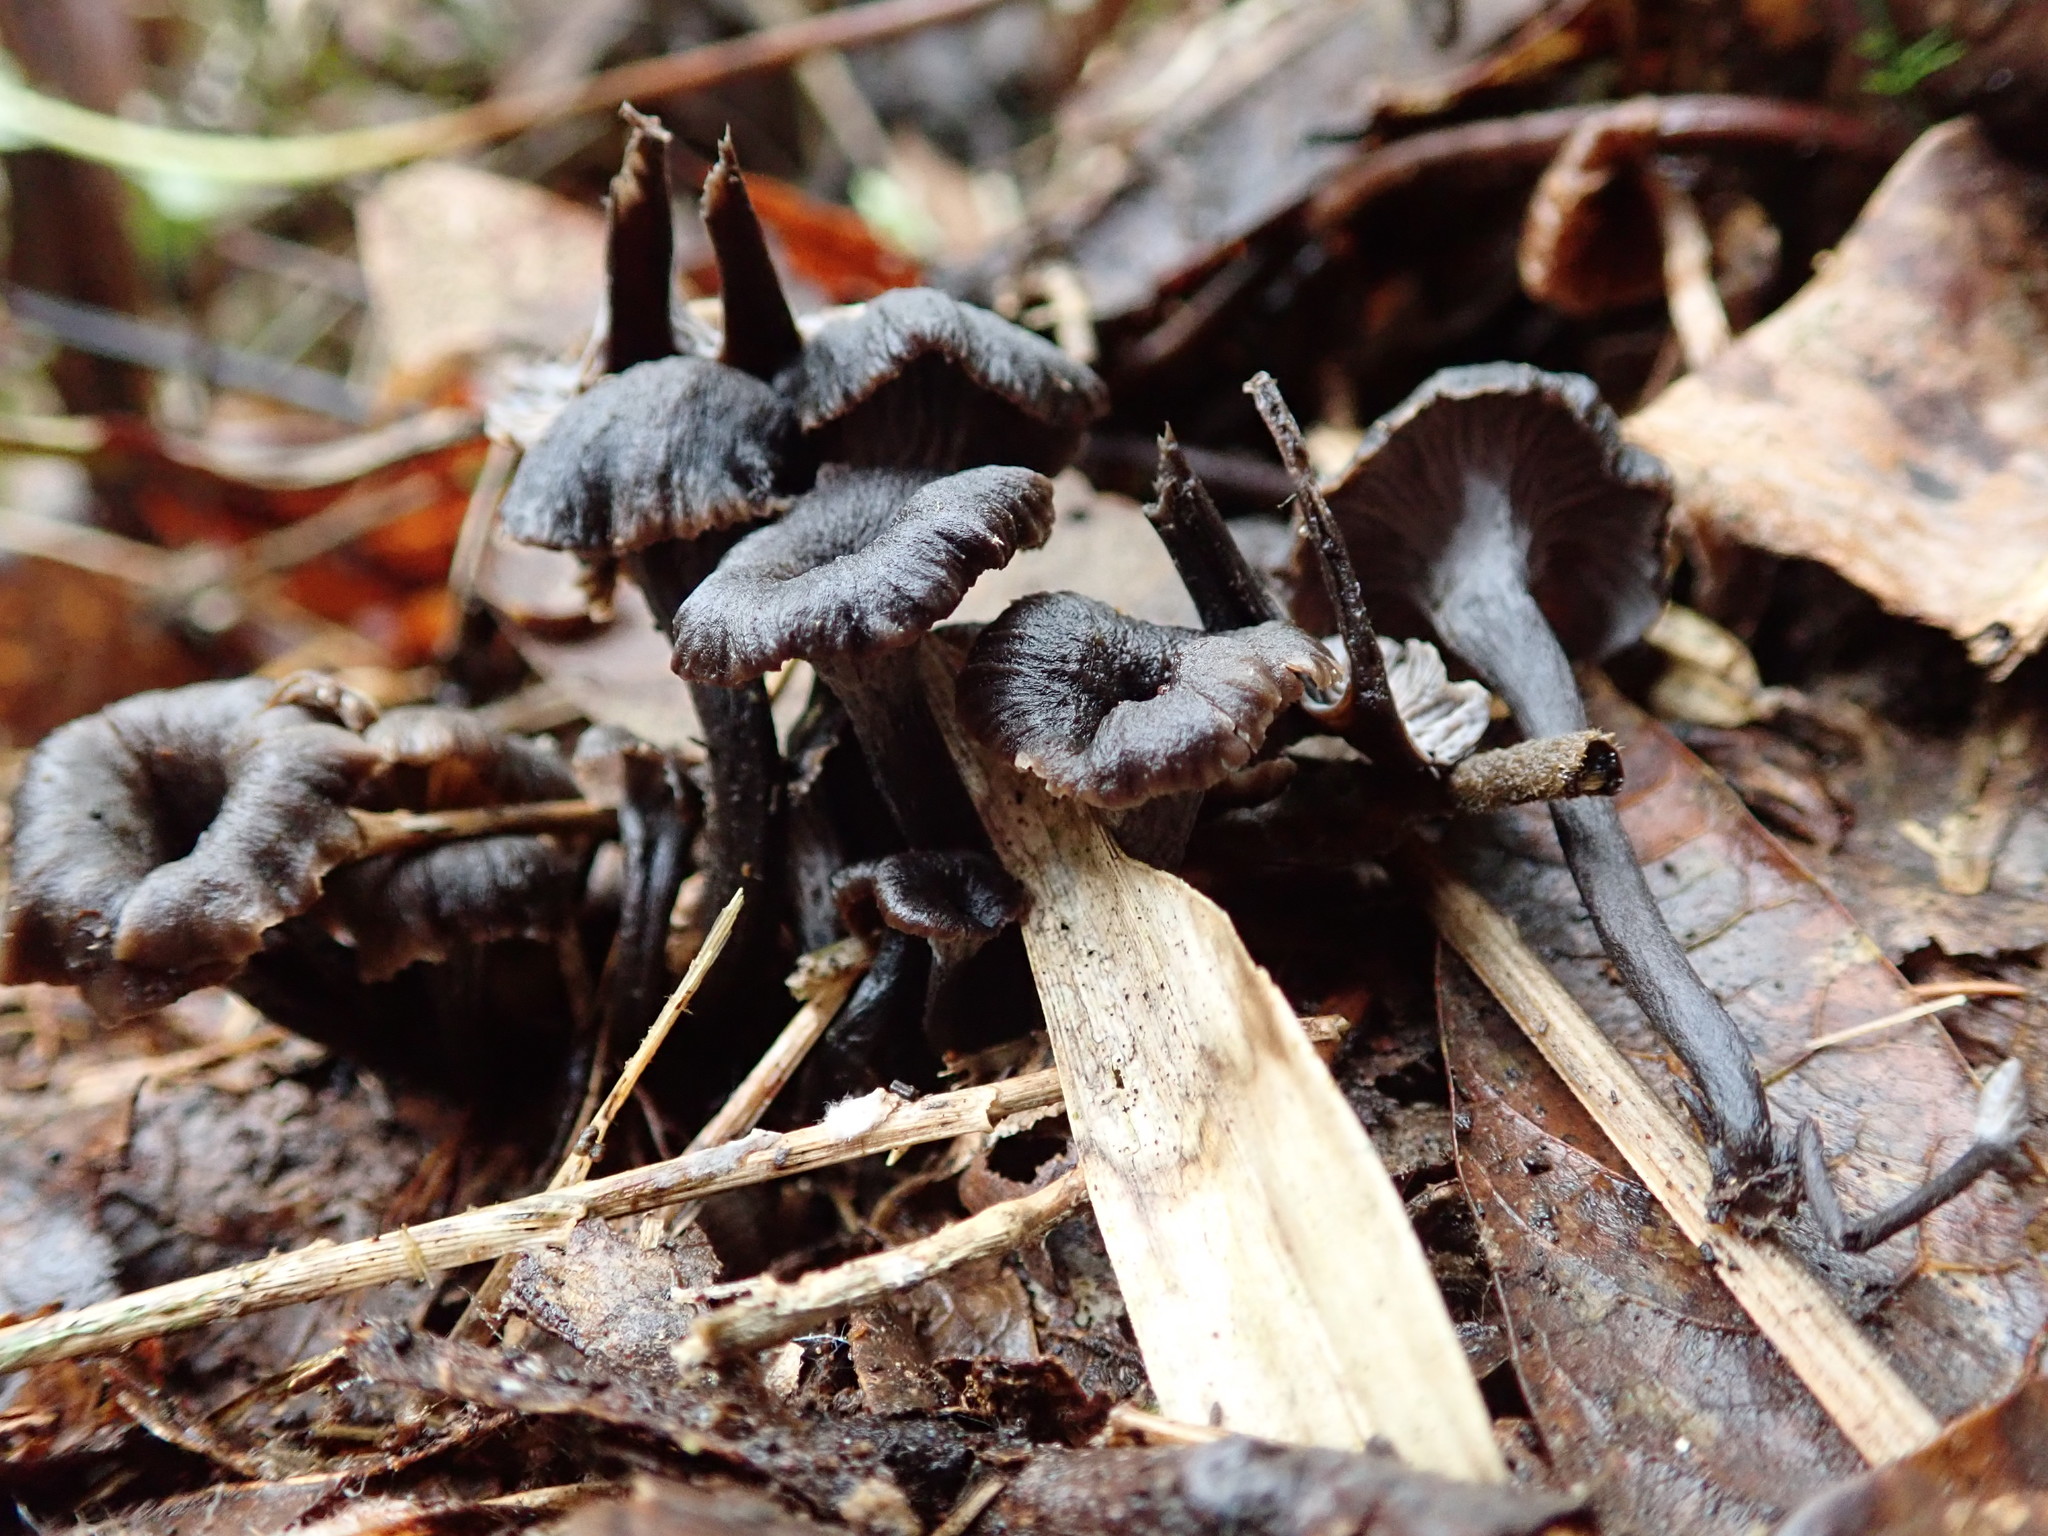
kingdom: Fungi
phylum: Basidiomycota
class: Agaricomycetes
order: Cantharellales
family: Hydnaceae
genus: Craterellus
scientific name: Craterellus boyacensis
